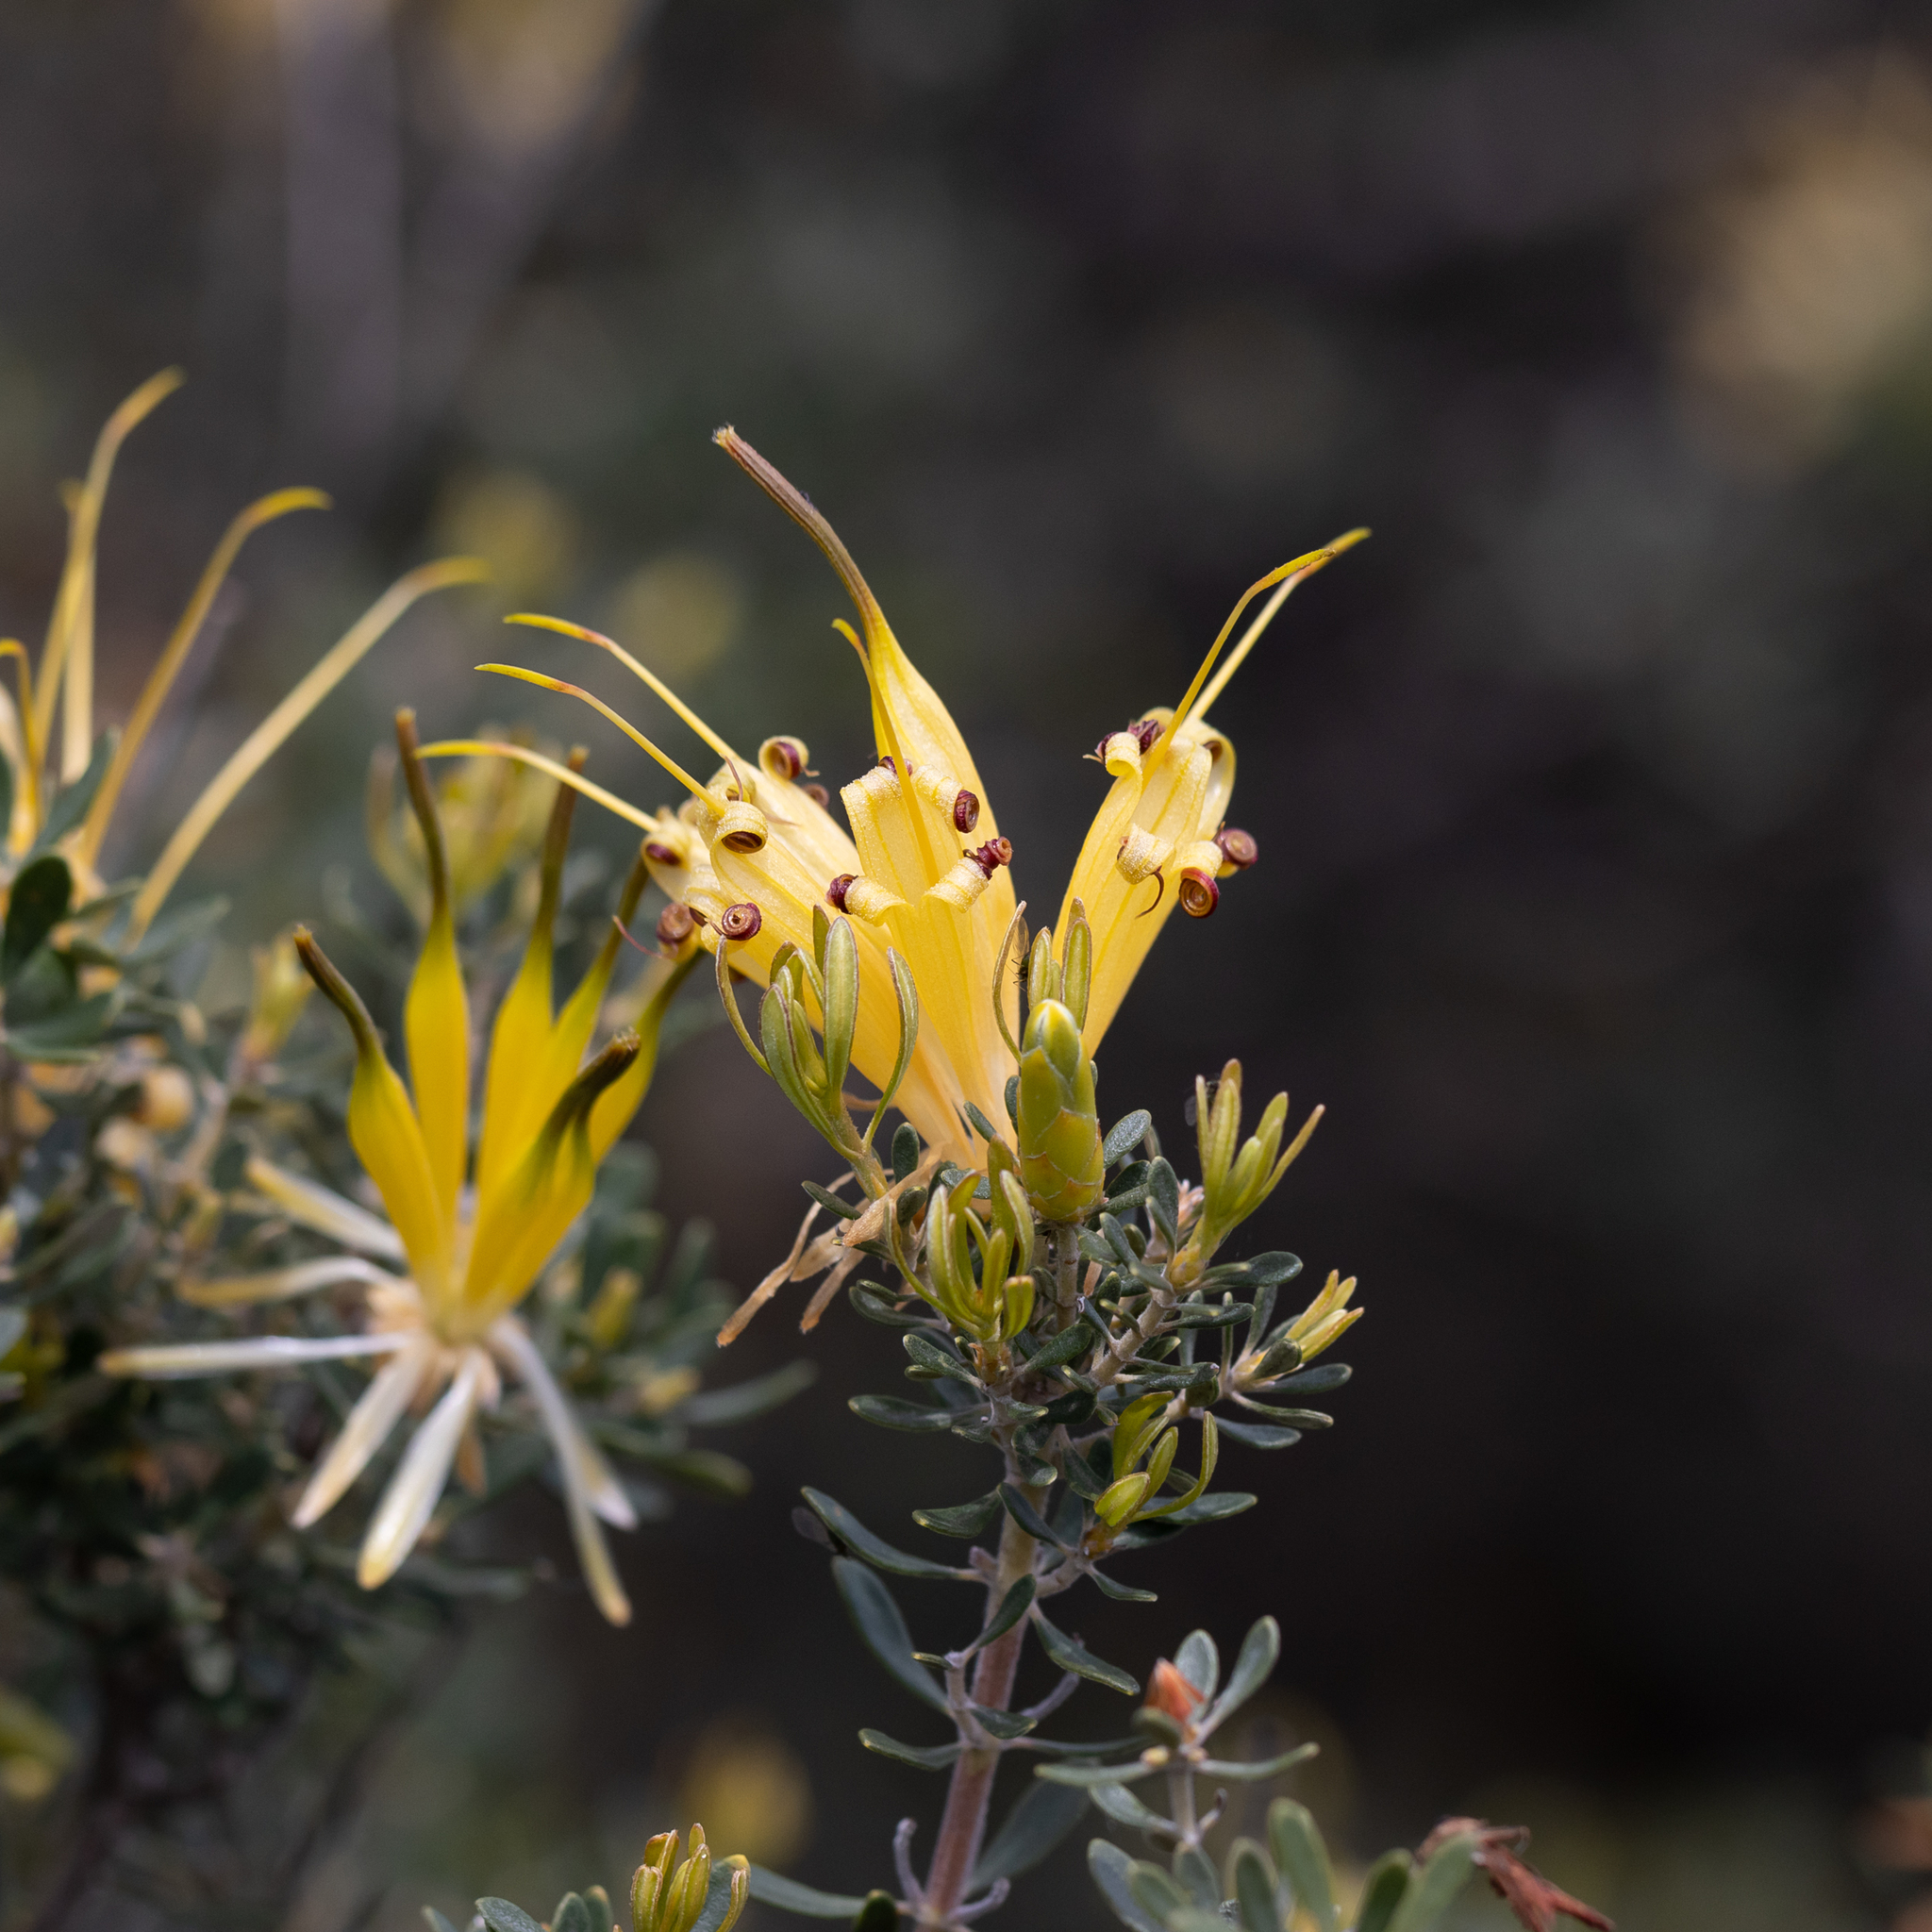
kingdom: Plantae
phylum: Tracheophyta
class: Magnoliopsida
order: Proteales
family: Proteaceae
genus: Lambertia
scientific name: Lambertia inermis
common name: Chittick
